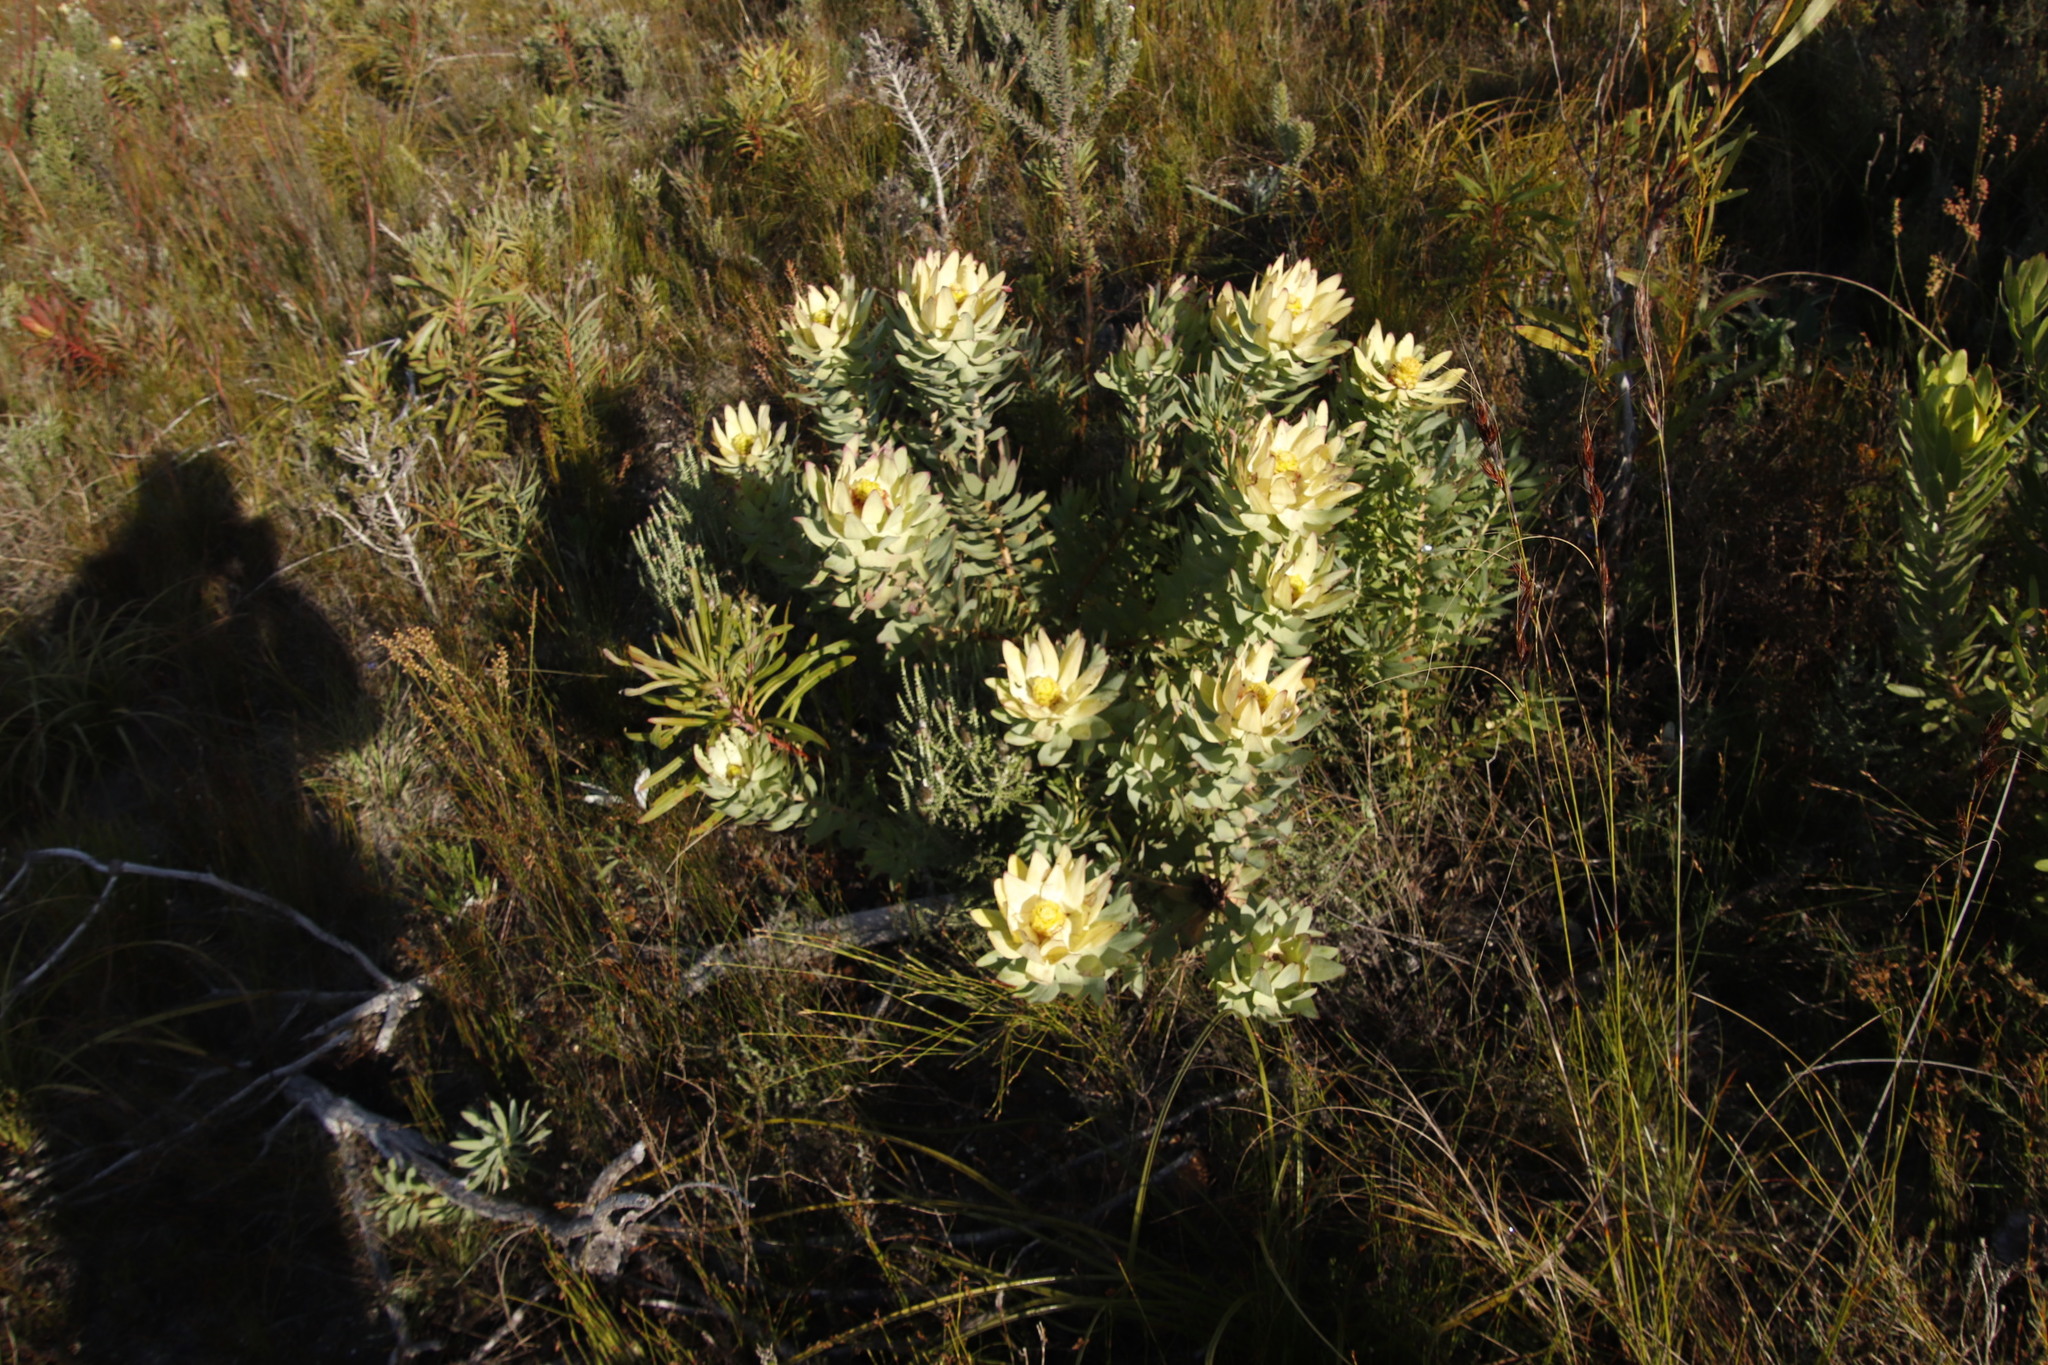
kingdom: Plantae
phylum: Tracheophyta
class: Magnoliopsida
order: Proteales
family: Proteaceae
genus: Leucadendron
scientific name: Leucadendron tinctum
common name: Spicy conebush
